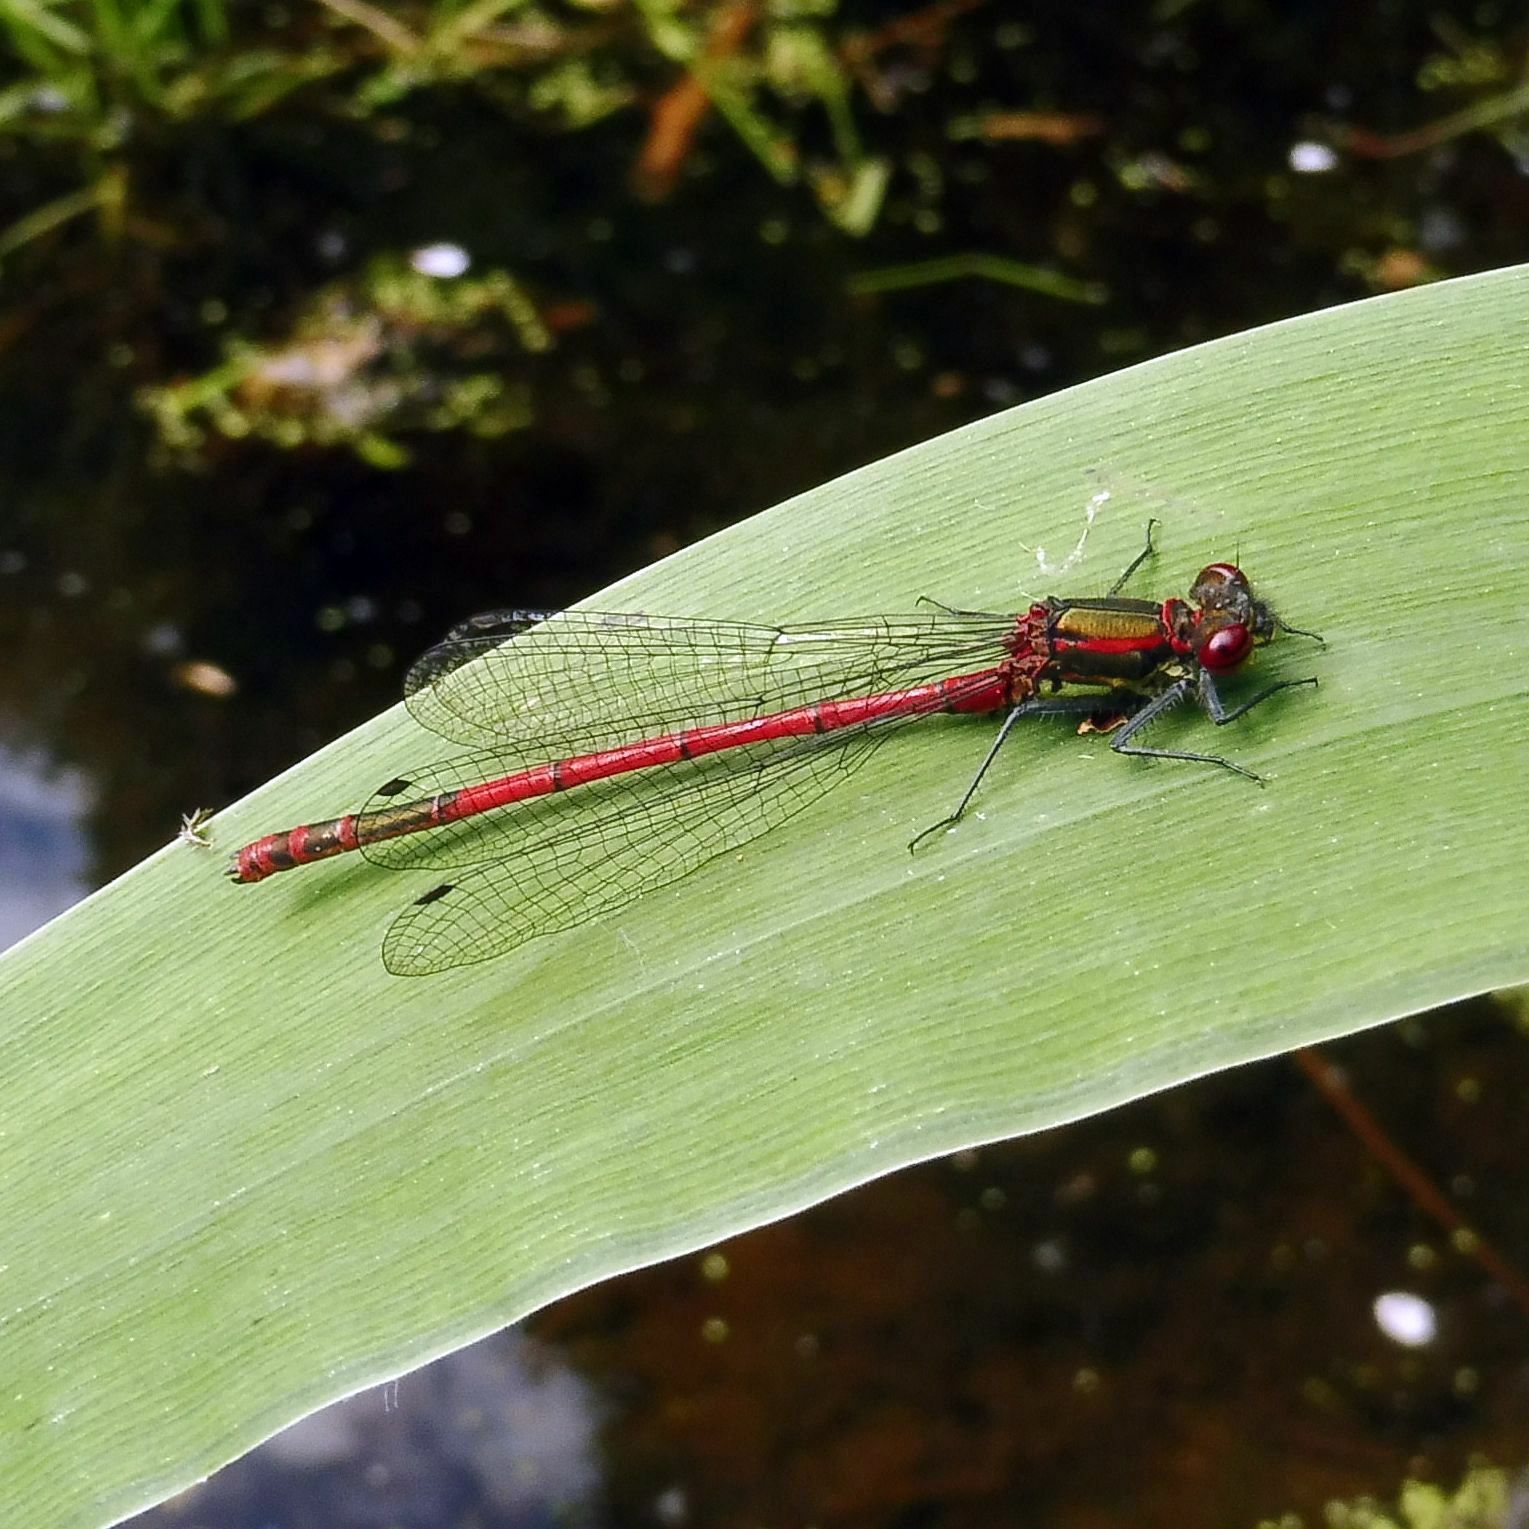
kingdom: Animalia
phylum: Arthropoda
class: Insecta
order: Odonata
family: Coenagrionidae
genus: Pyrrhosoma
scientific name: Pyrrhosoma nymphula
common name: Large red damsel
